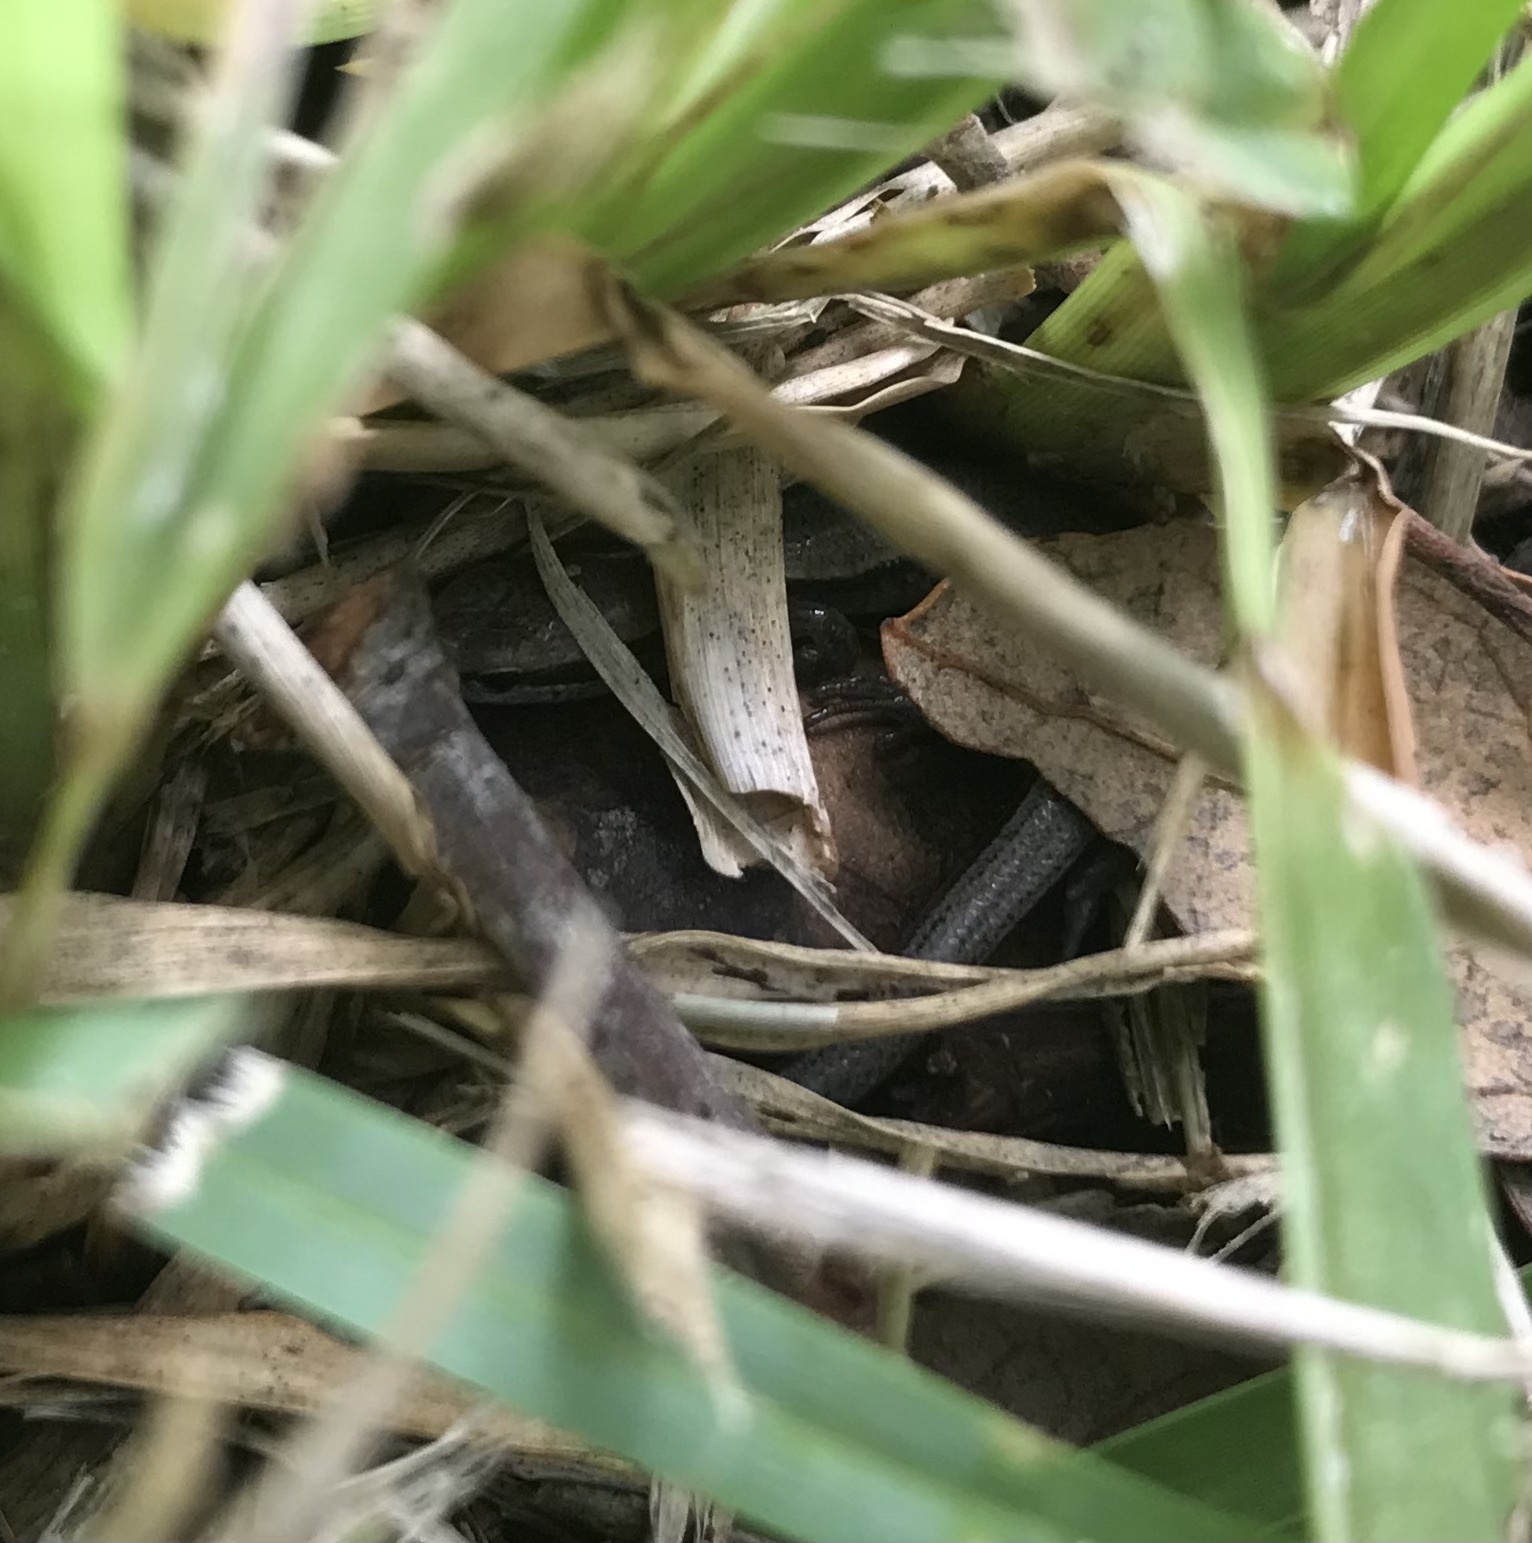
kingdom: Animalia
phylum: Chordata
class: Squamata
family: Scincidae
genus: Scincella
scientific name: Scincella lateralis
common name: Ground skink
